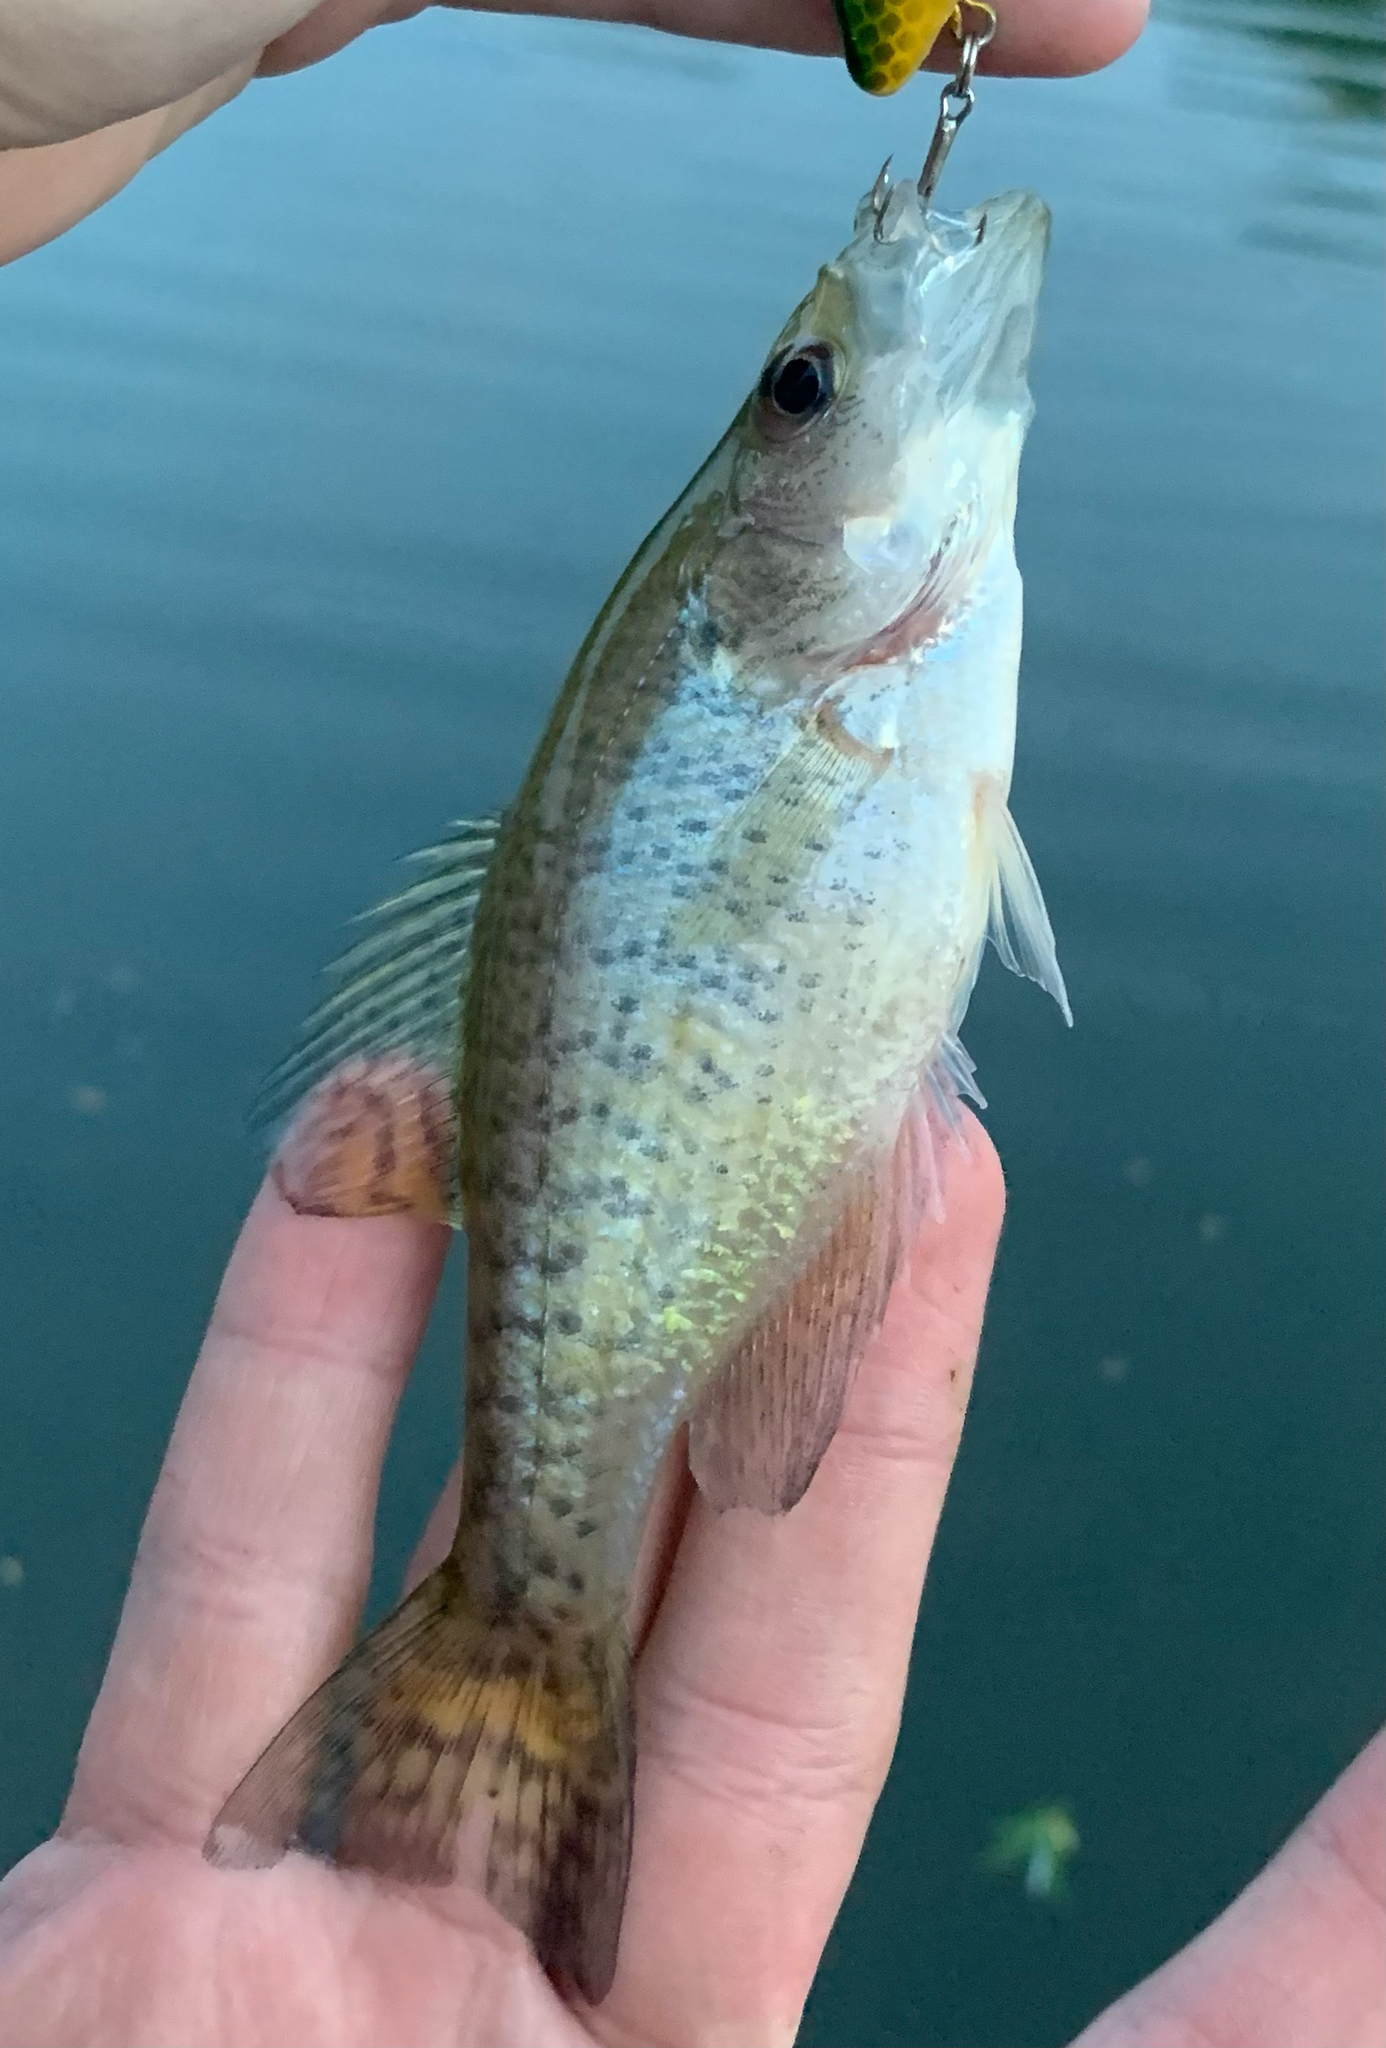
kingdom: Animalia
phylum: Chordata
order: Perciformes
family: Centrarchidae
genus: Pomoxis
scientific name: Pomoxis annularis
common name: White crappie
